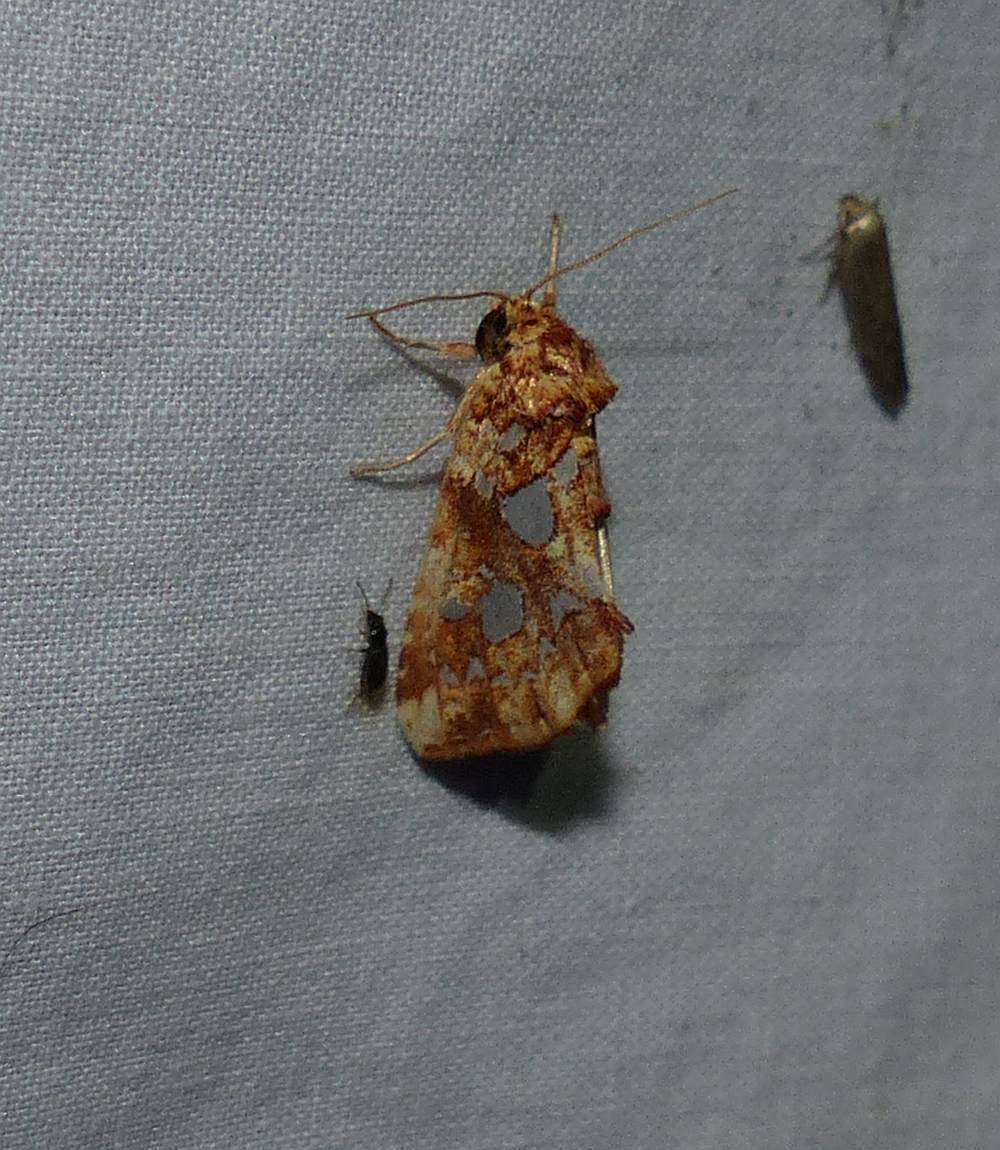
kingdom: Animalia
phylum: Arthropoda
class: Insecta
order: Lepidoptera
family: Noctuidae
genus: Callopistria
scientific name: Callopistria cordata
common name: Silver-spotted fern moth
